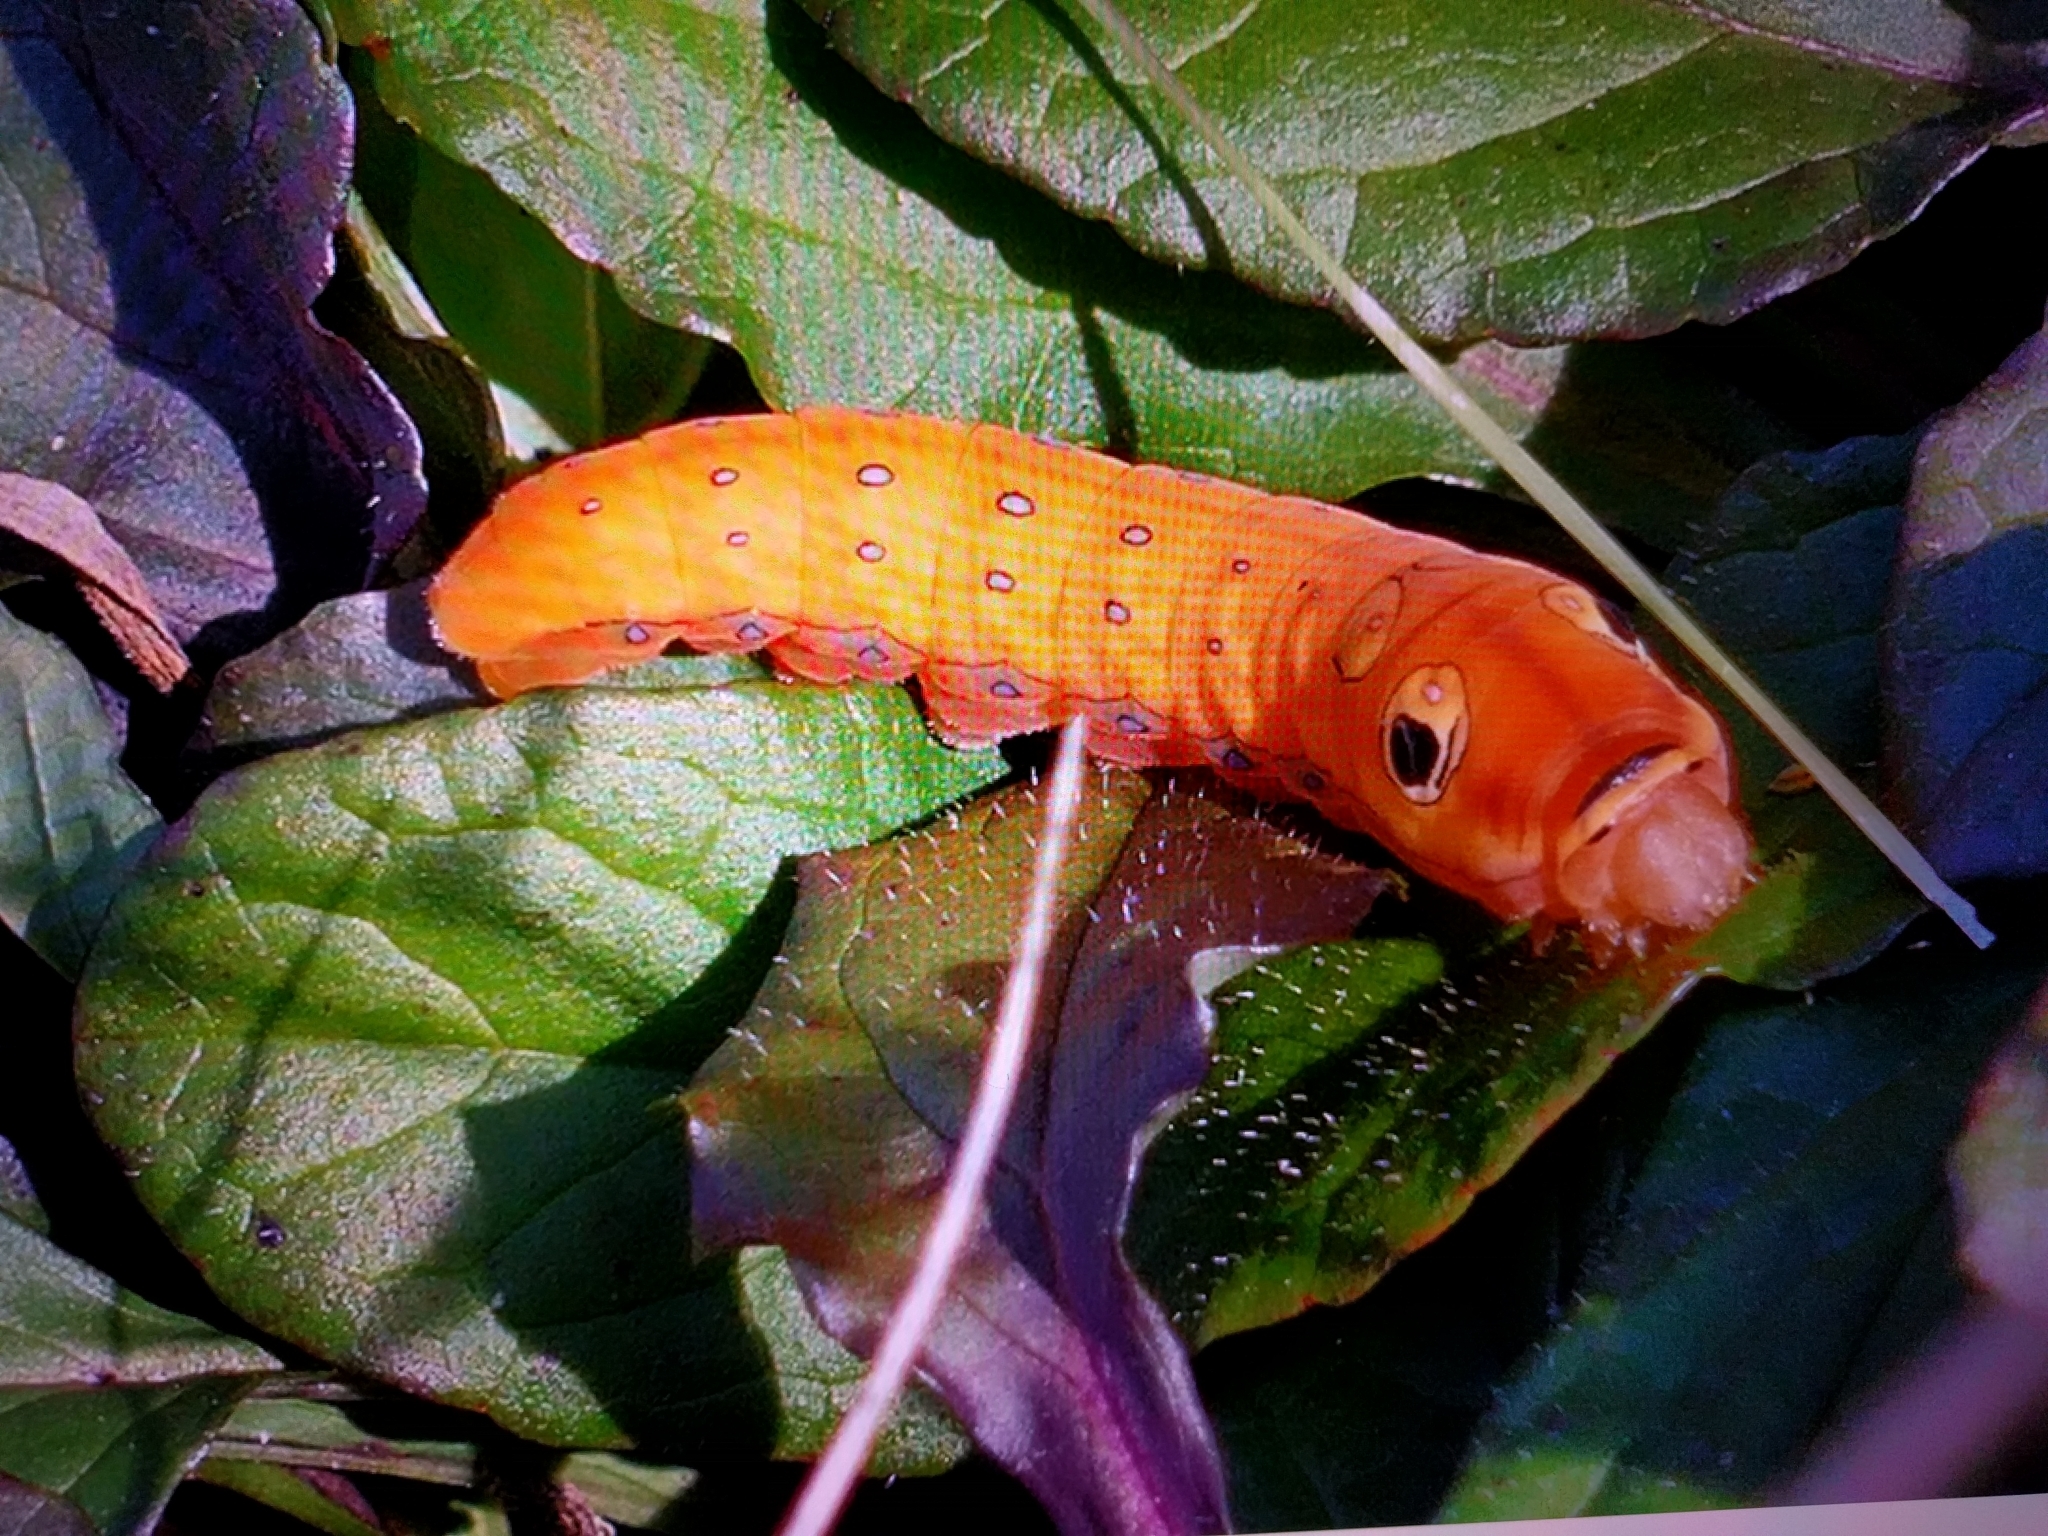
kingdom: Animalia
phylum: Arthropoda
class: Insecta
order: Lepidoptera
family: Papilionidae
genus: Papilio
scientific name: Papilio troilus
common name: Spicebush swallowtail
